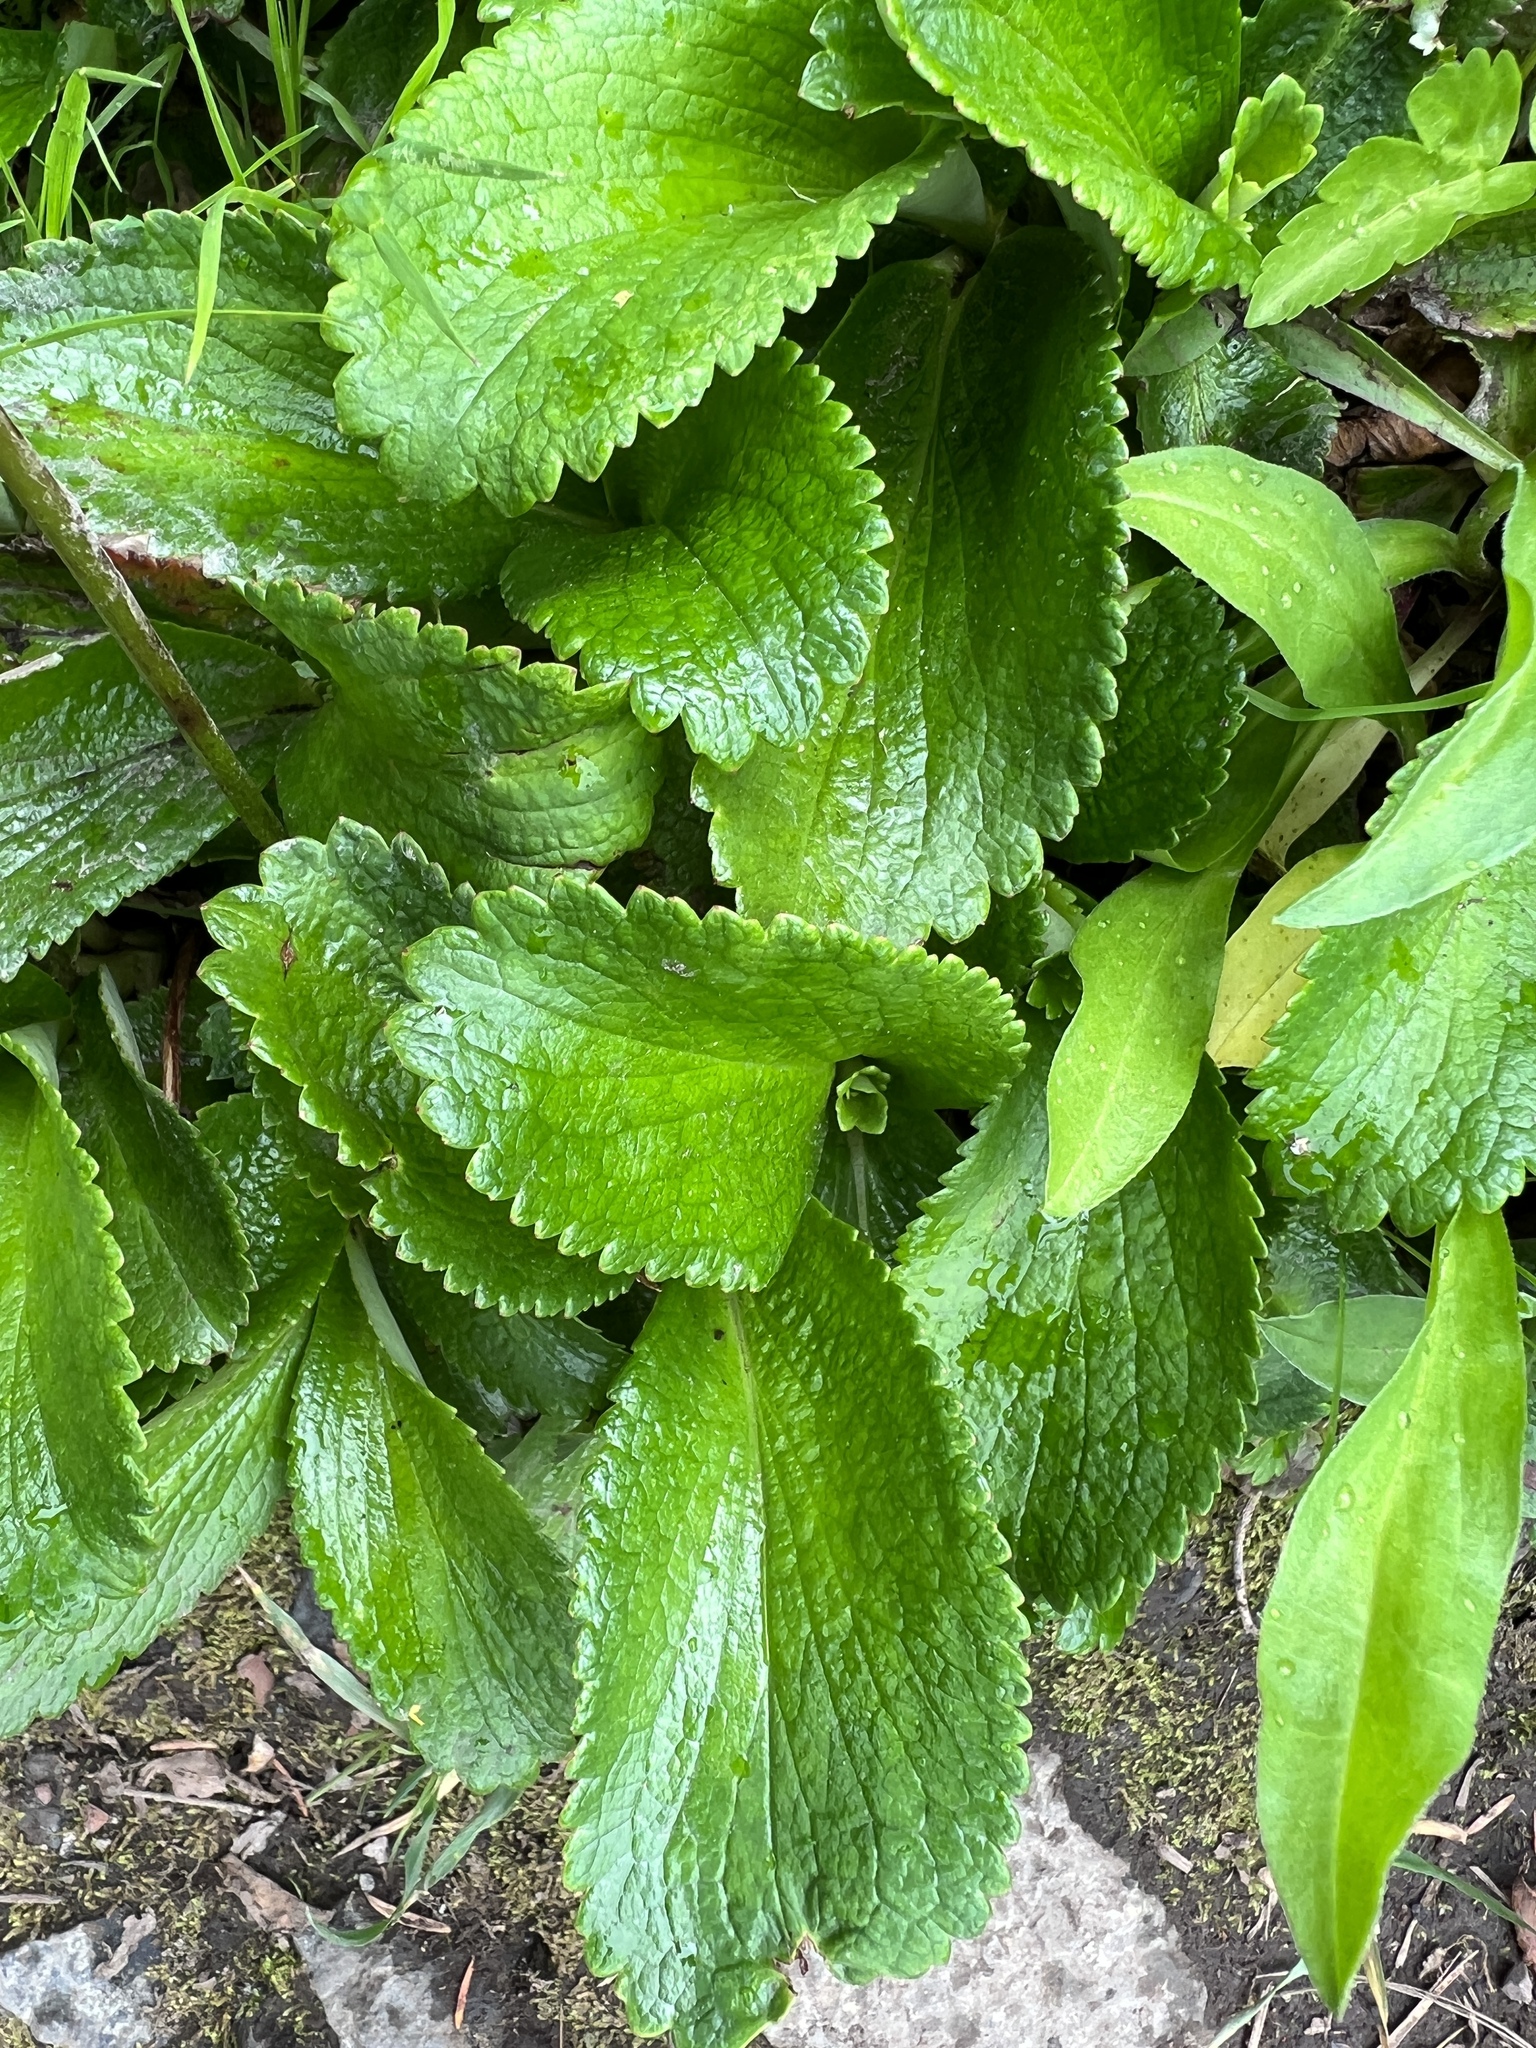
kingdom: Plantae
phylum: Tracheophyta
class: Magnoliopsida
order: Saxifragales
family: Saxifragaceae
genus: Leptarrhena
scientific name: Leptarrhena pyrolifolia
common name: Leatherleaf-saxifrage
